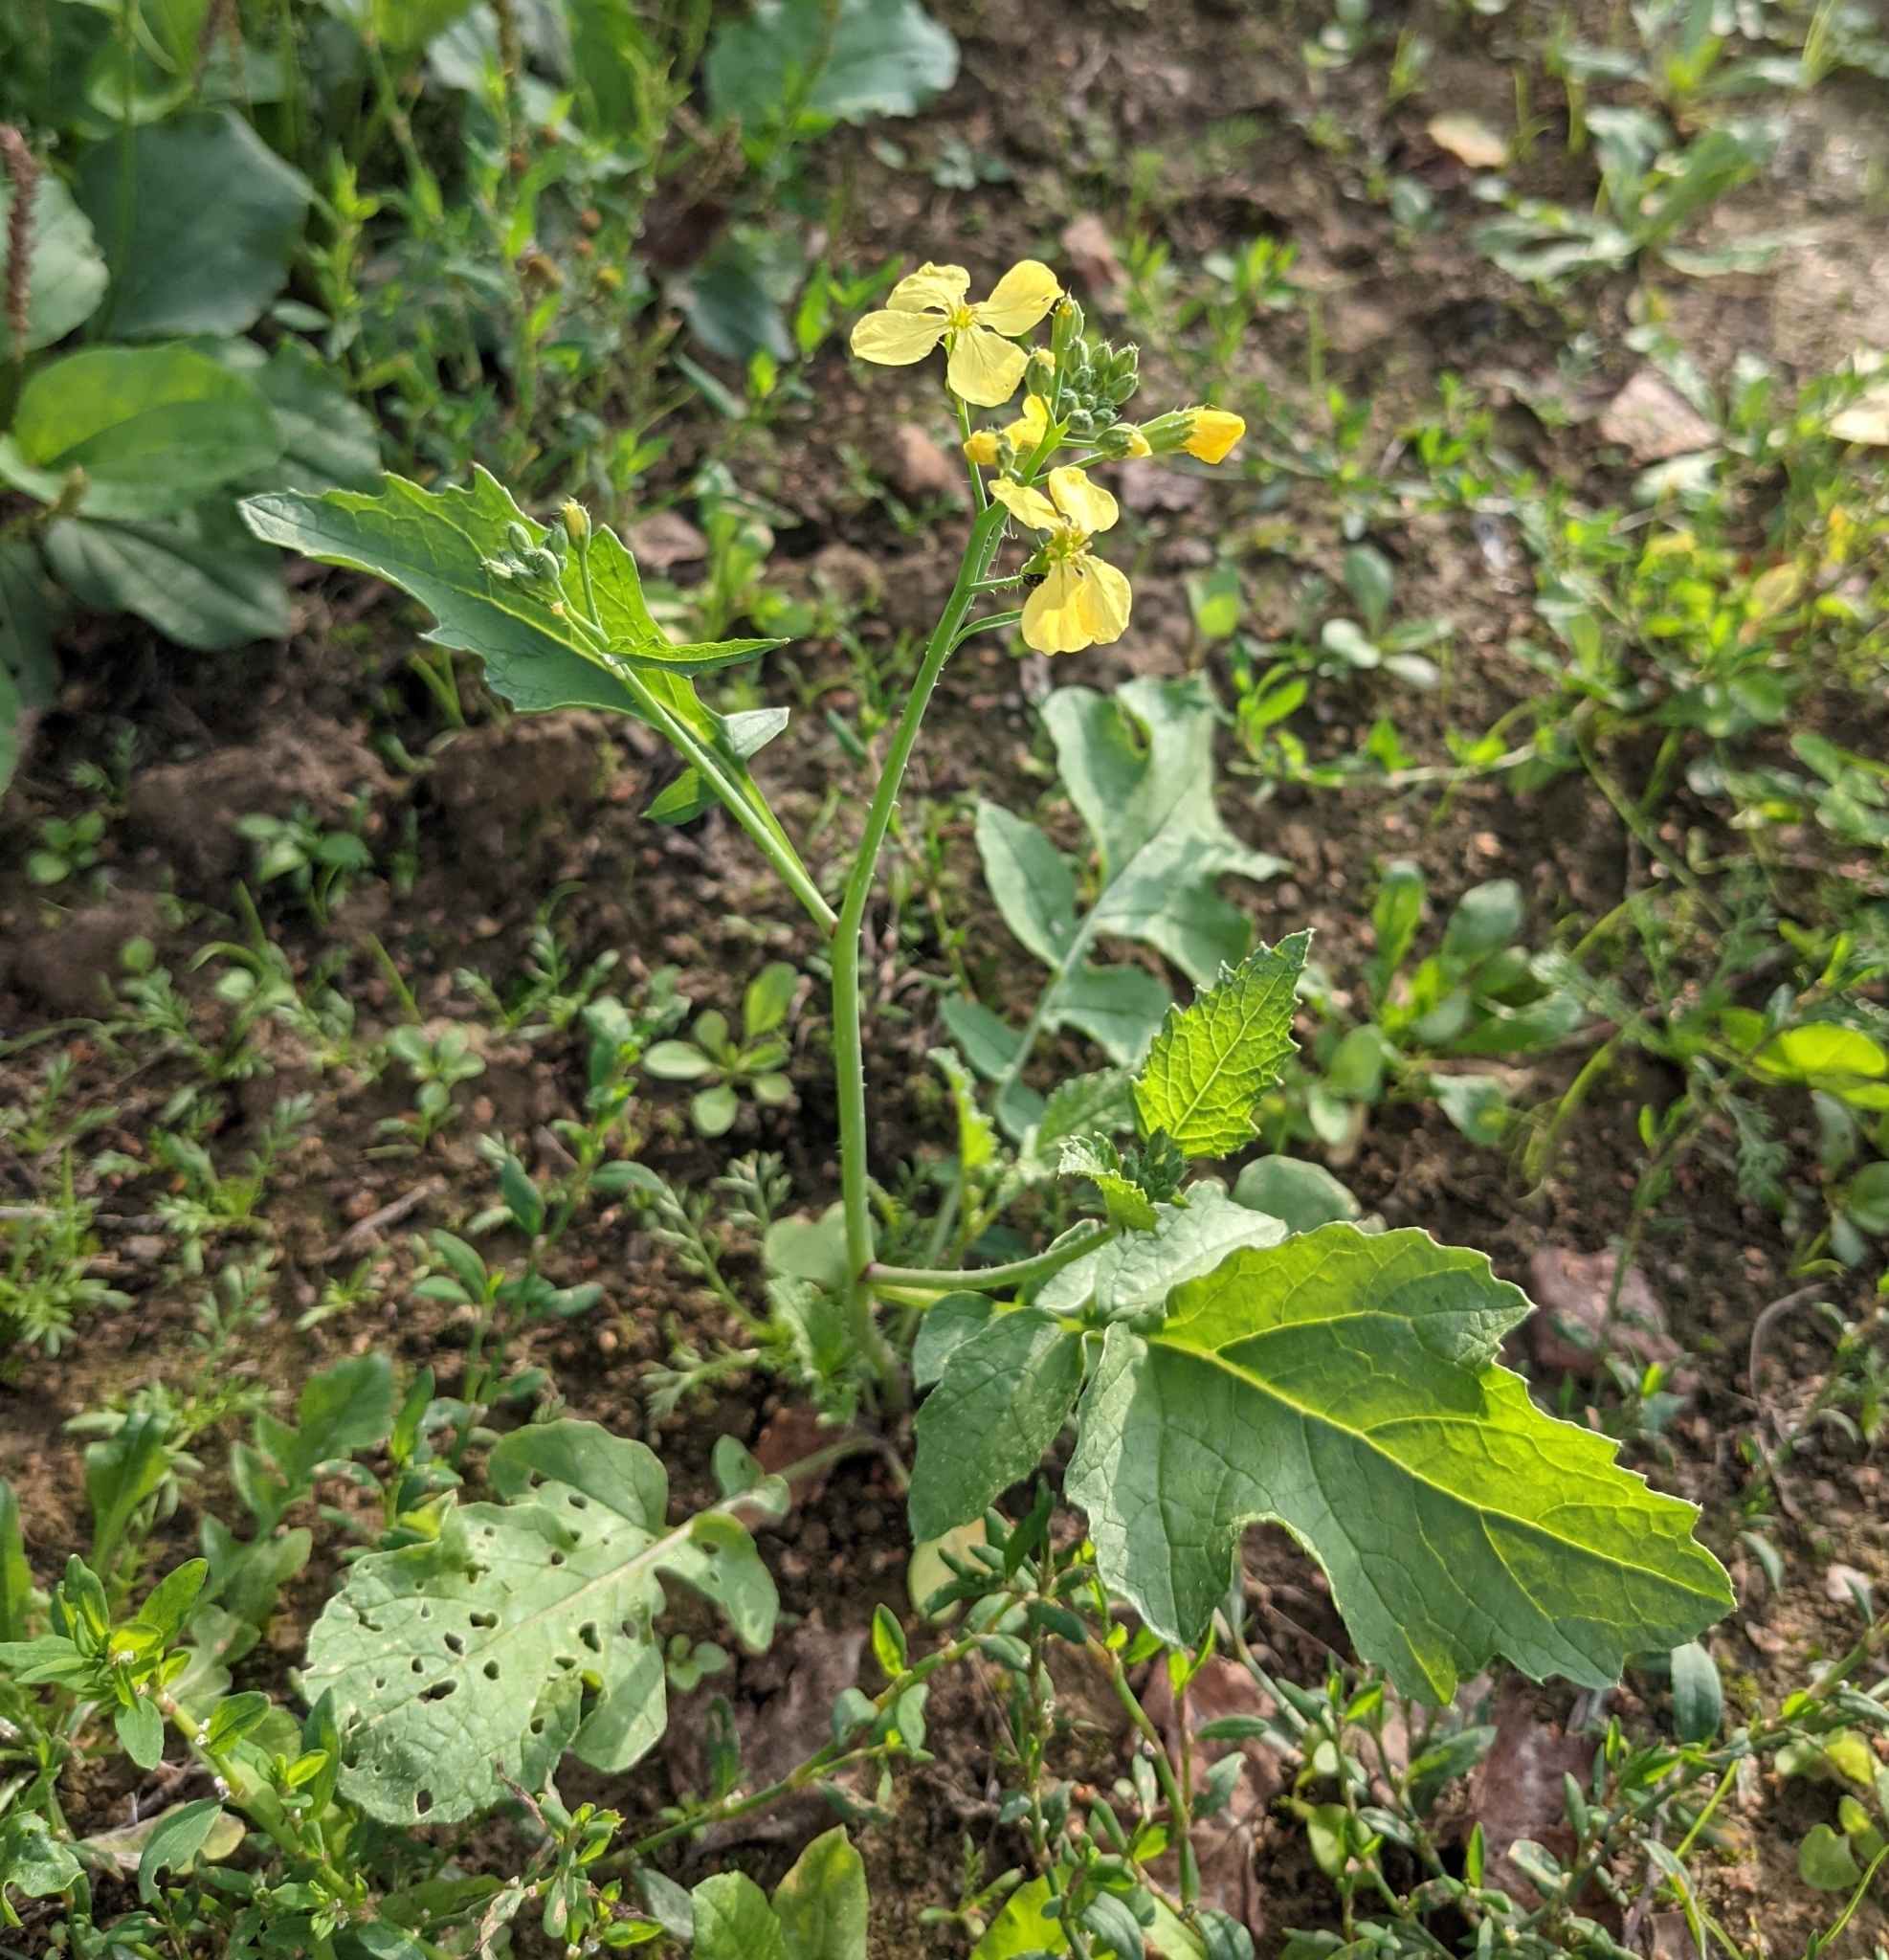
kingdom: Plantae
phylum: Tracheophyta
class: Magnoliopsida
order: Brassicales
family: Brassicaceae
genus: Raphanus
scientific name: Raphanus raphanistrum
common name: Wild radish
